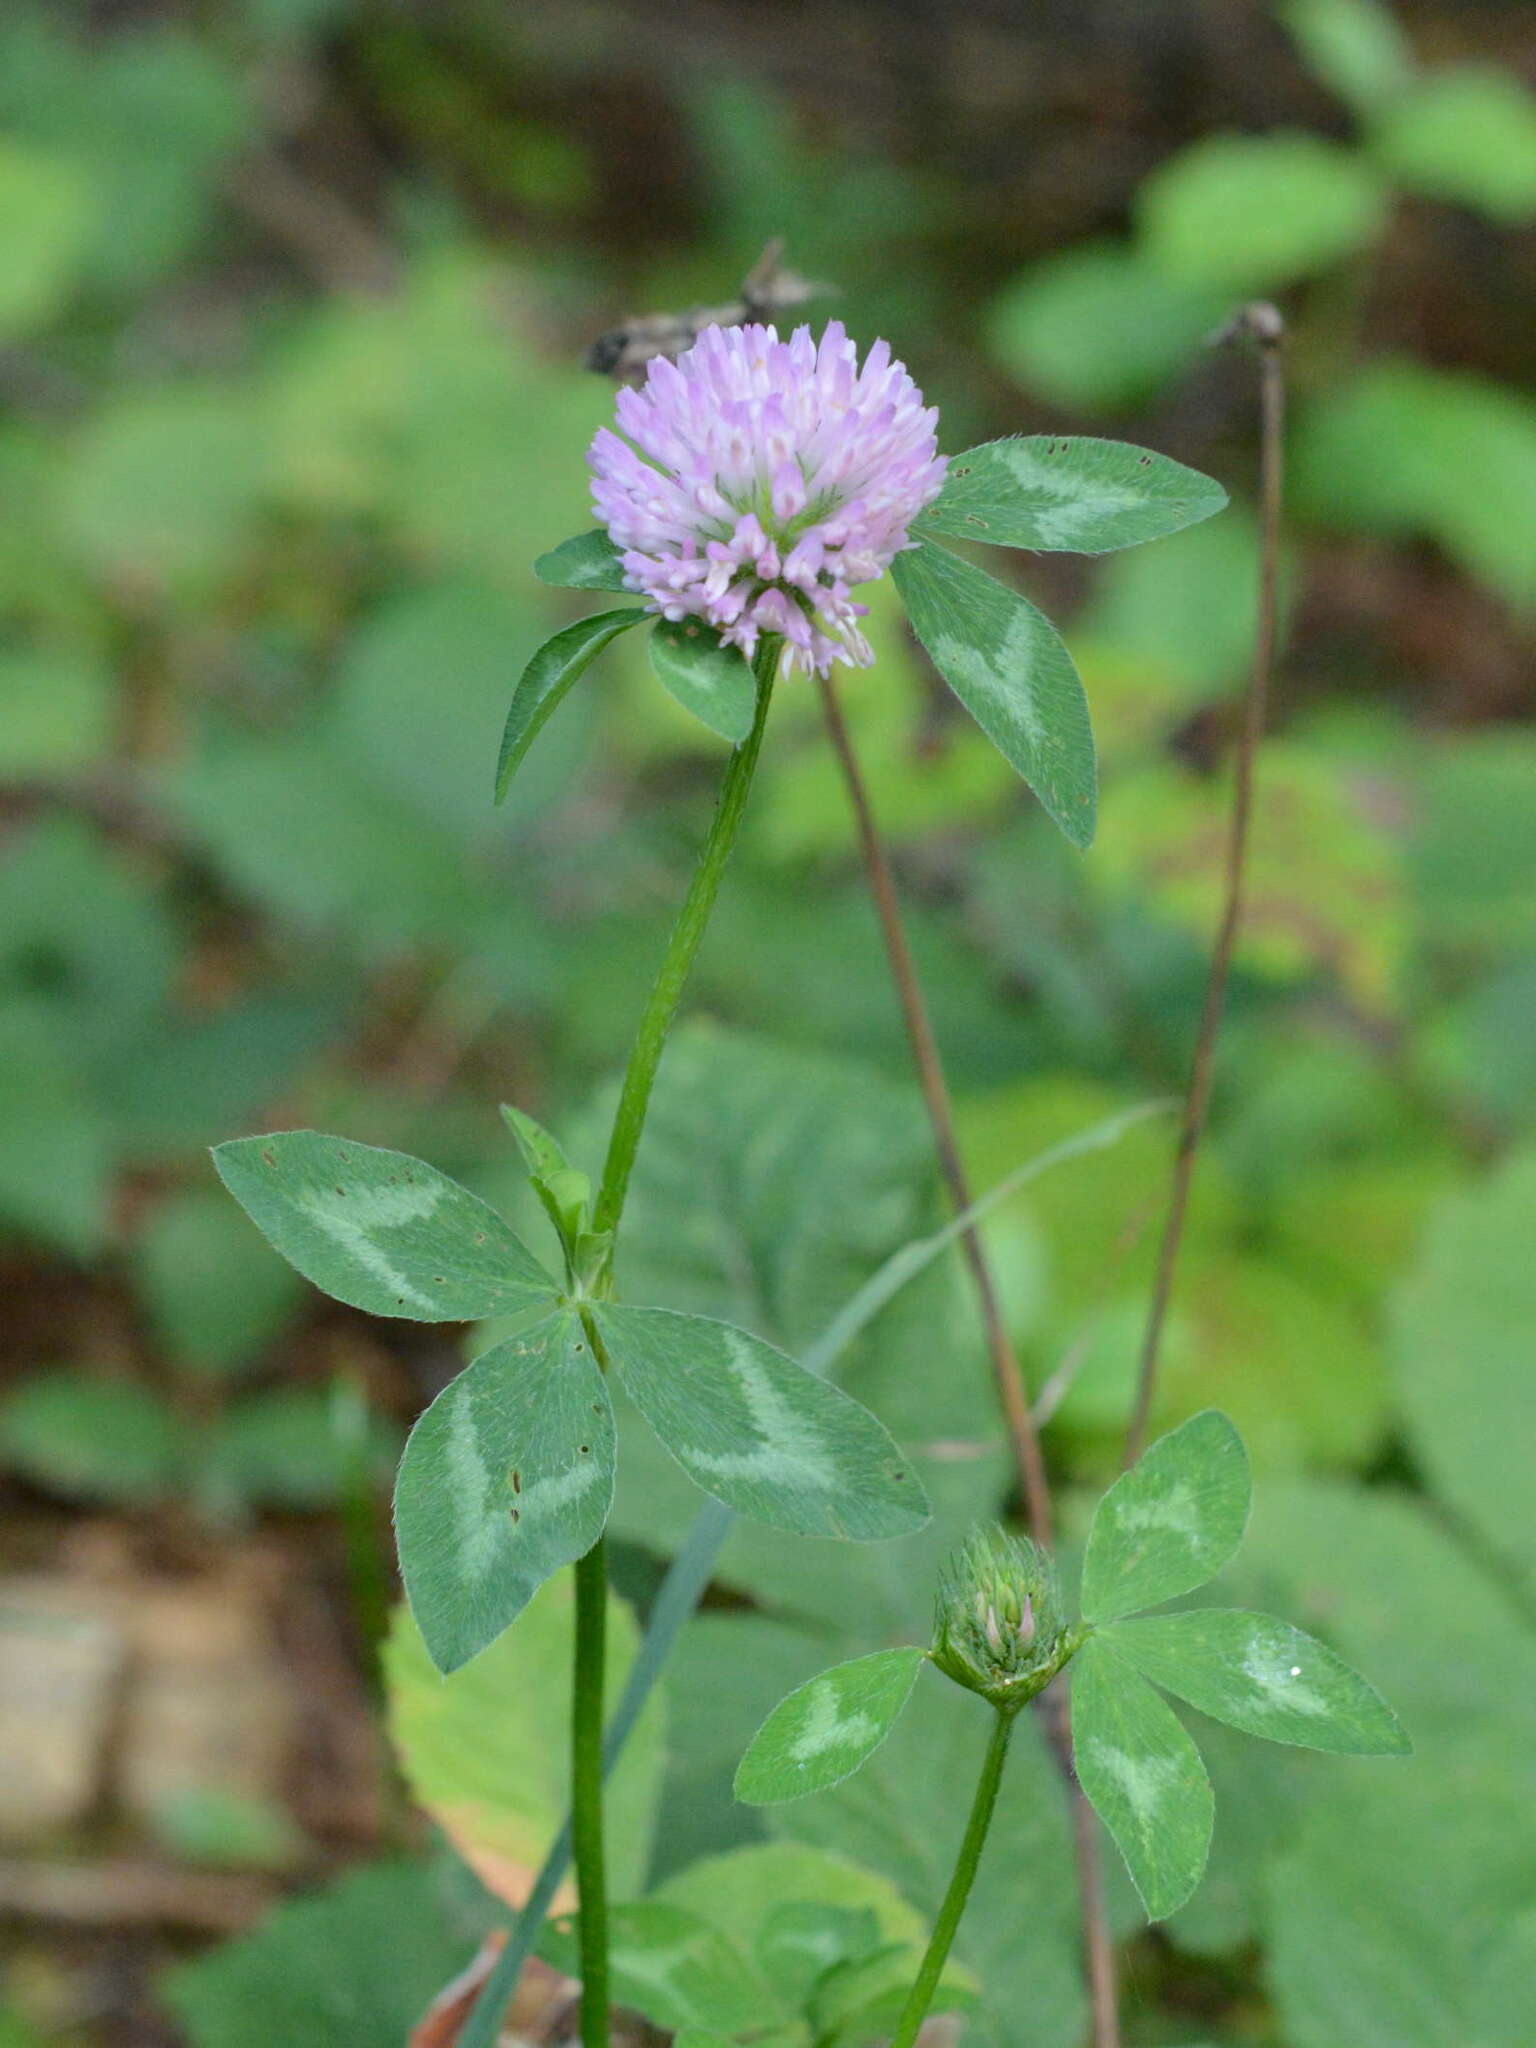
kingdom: Plantae
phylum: Tracheophyta
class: Magnoliopsida
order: Fabales
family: Fabaceae
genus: Trifolium
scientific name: Trifolium pratense
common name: Red clover
